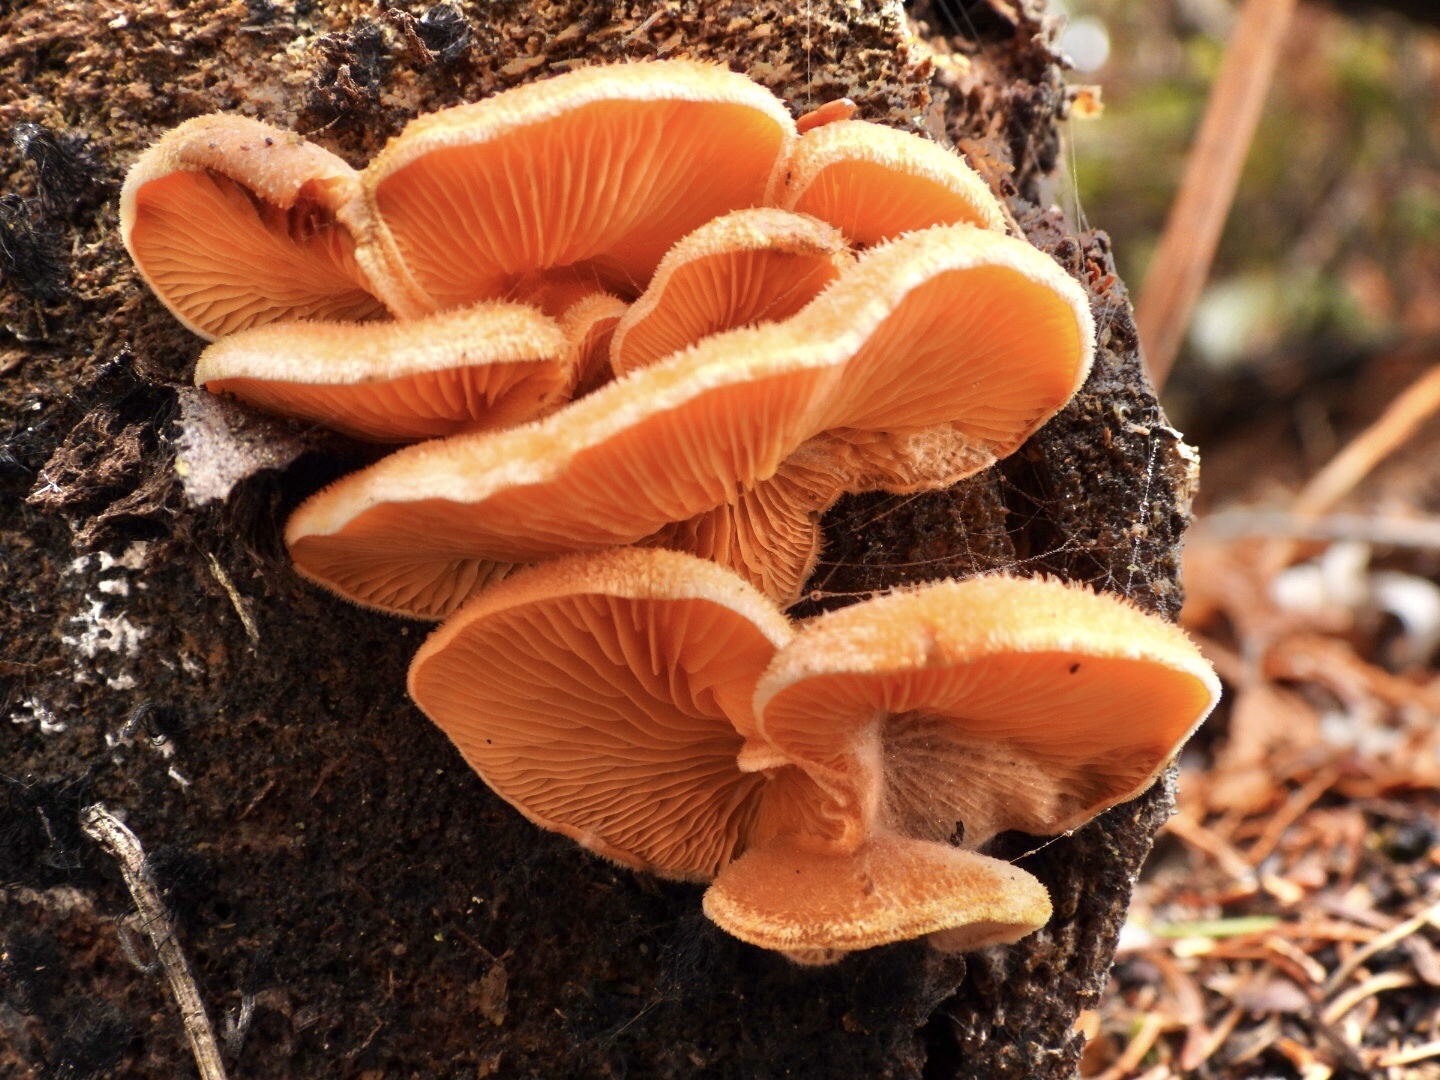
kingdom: Fungi
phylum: Basidiomycota
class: Agaricomycetes
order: Agaricales
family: Phyllotopsidaceae
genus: Phyllotopsis
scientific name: Phyllotopsis nidulans
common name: Orange mock oyster
